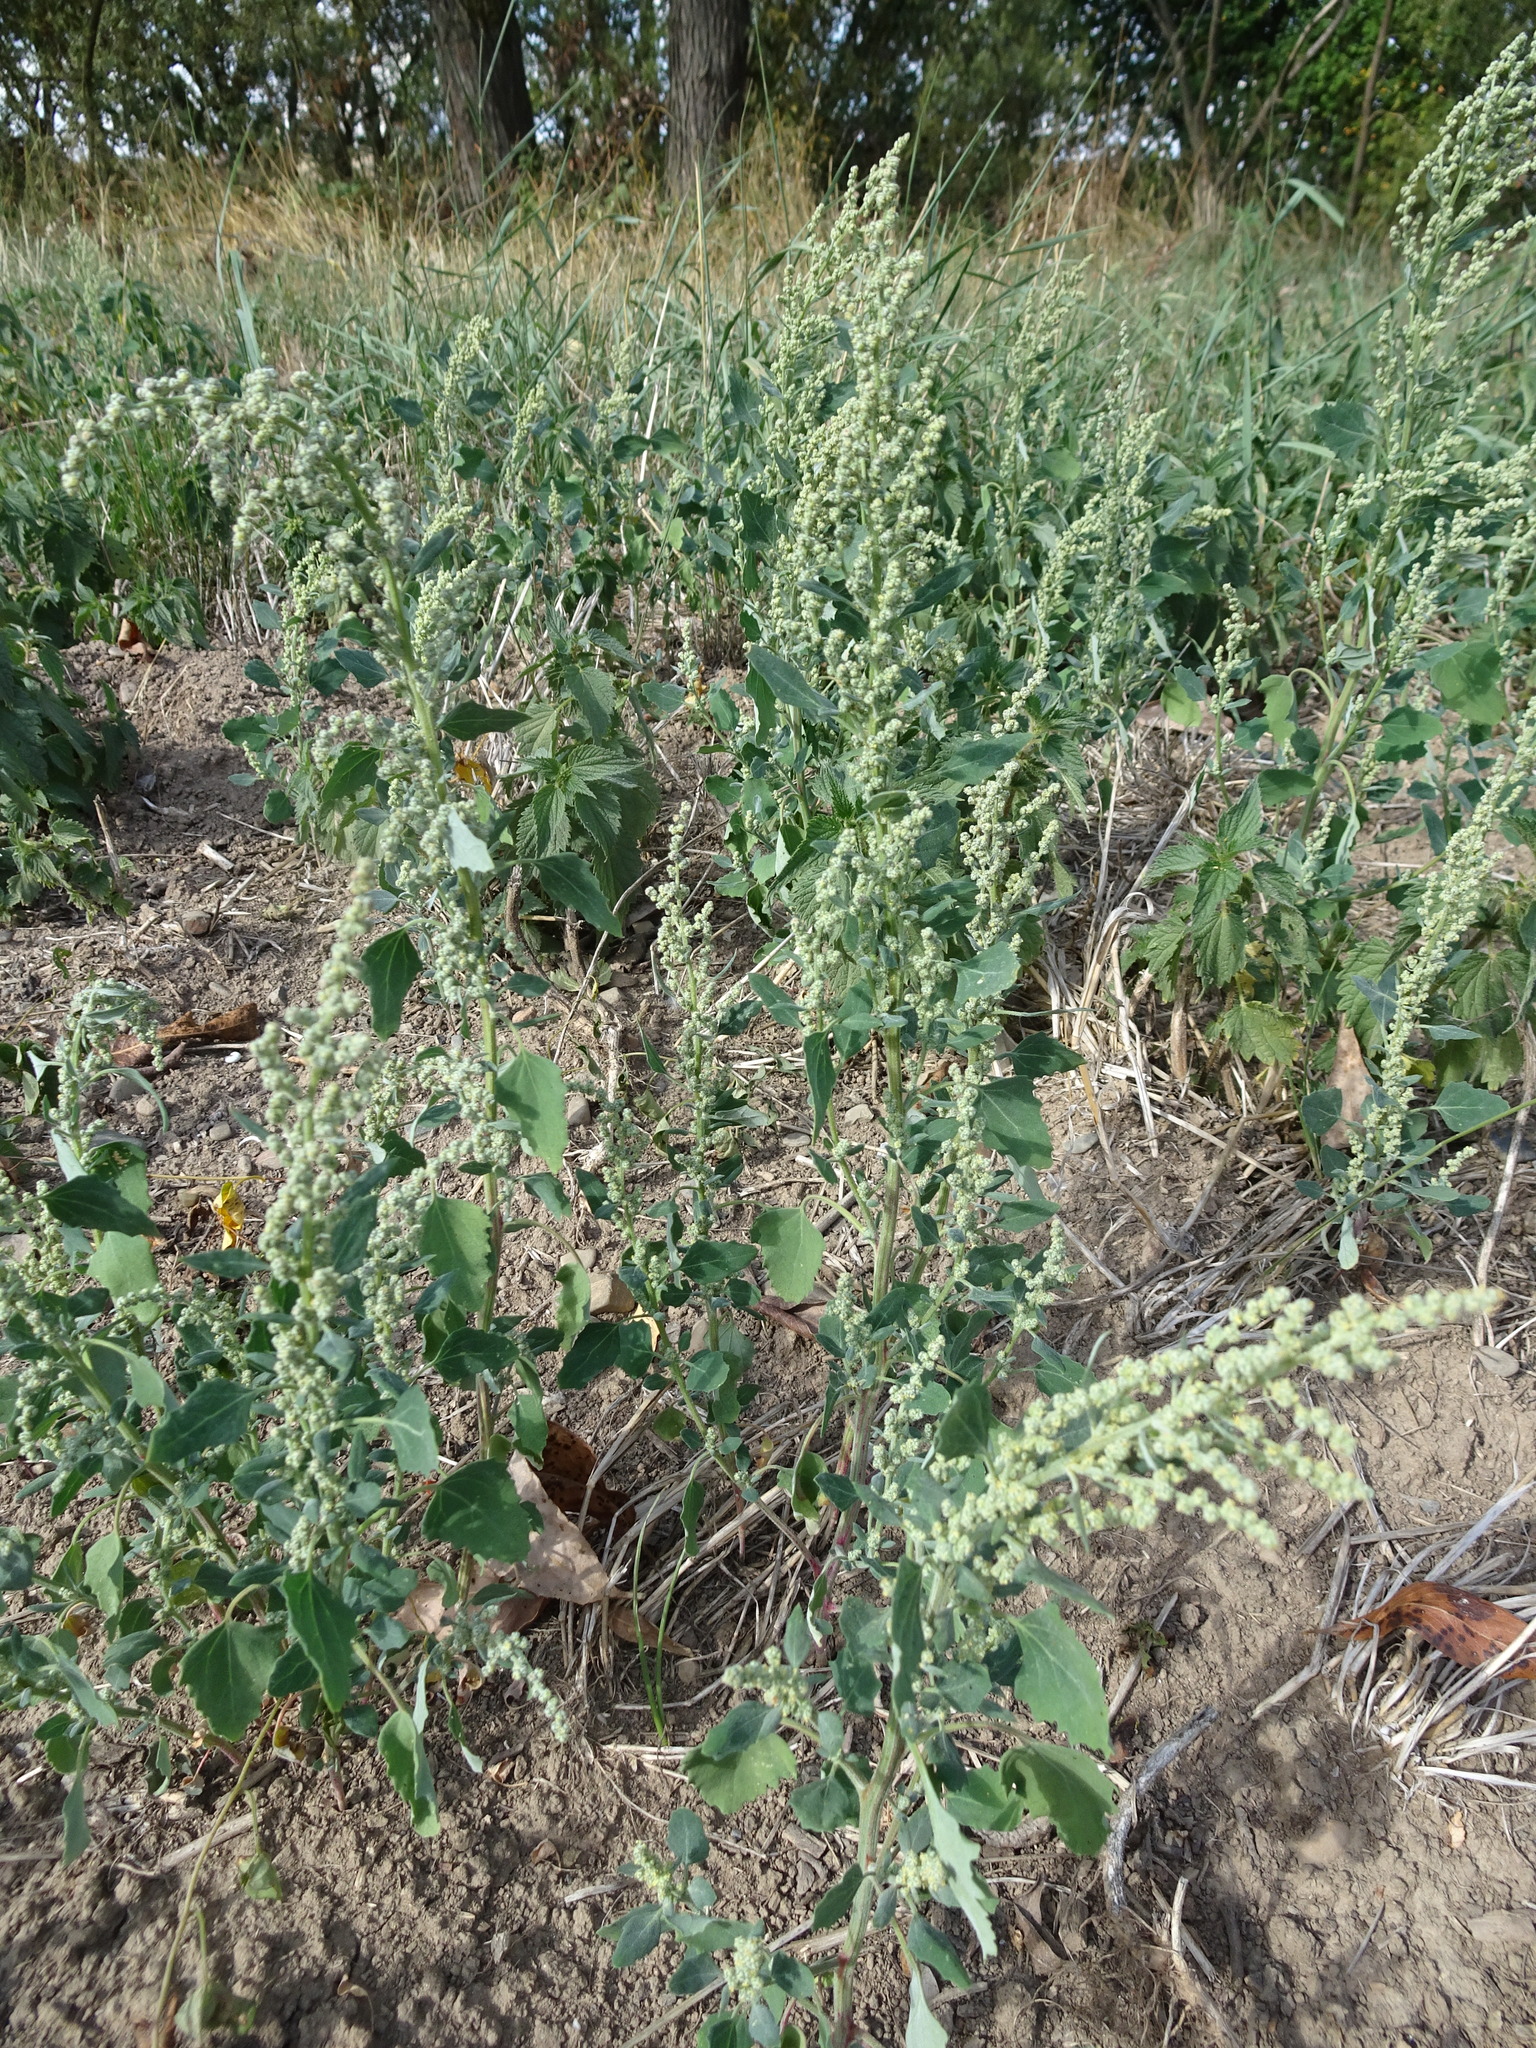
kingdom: Plantae
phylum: Tracheophyta
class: Magnoliopsida
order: Caryophyllales
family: Amaranthaceae
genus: Chenopodium
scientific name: Chenopodium album
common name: Fat-hen
